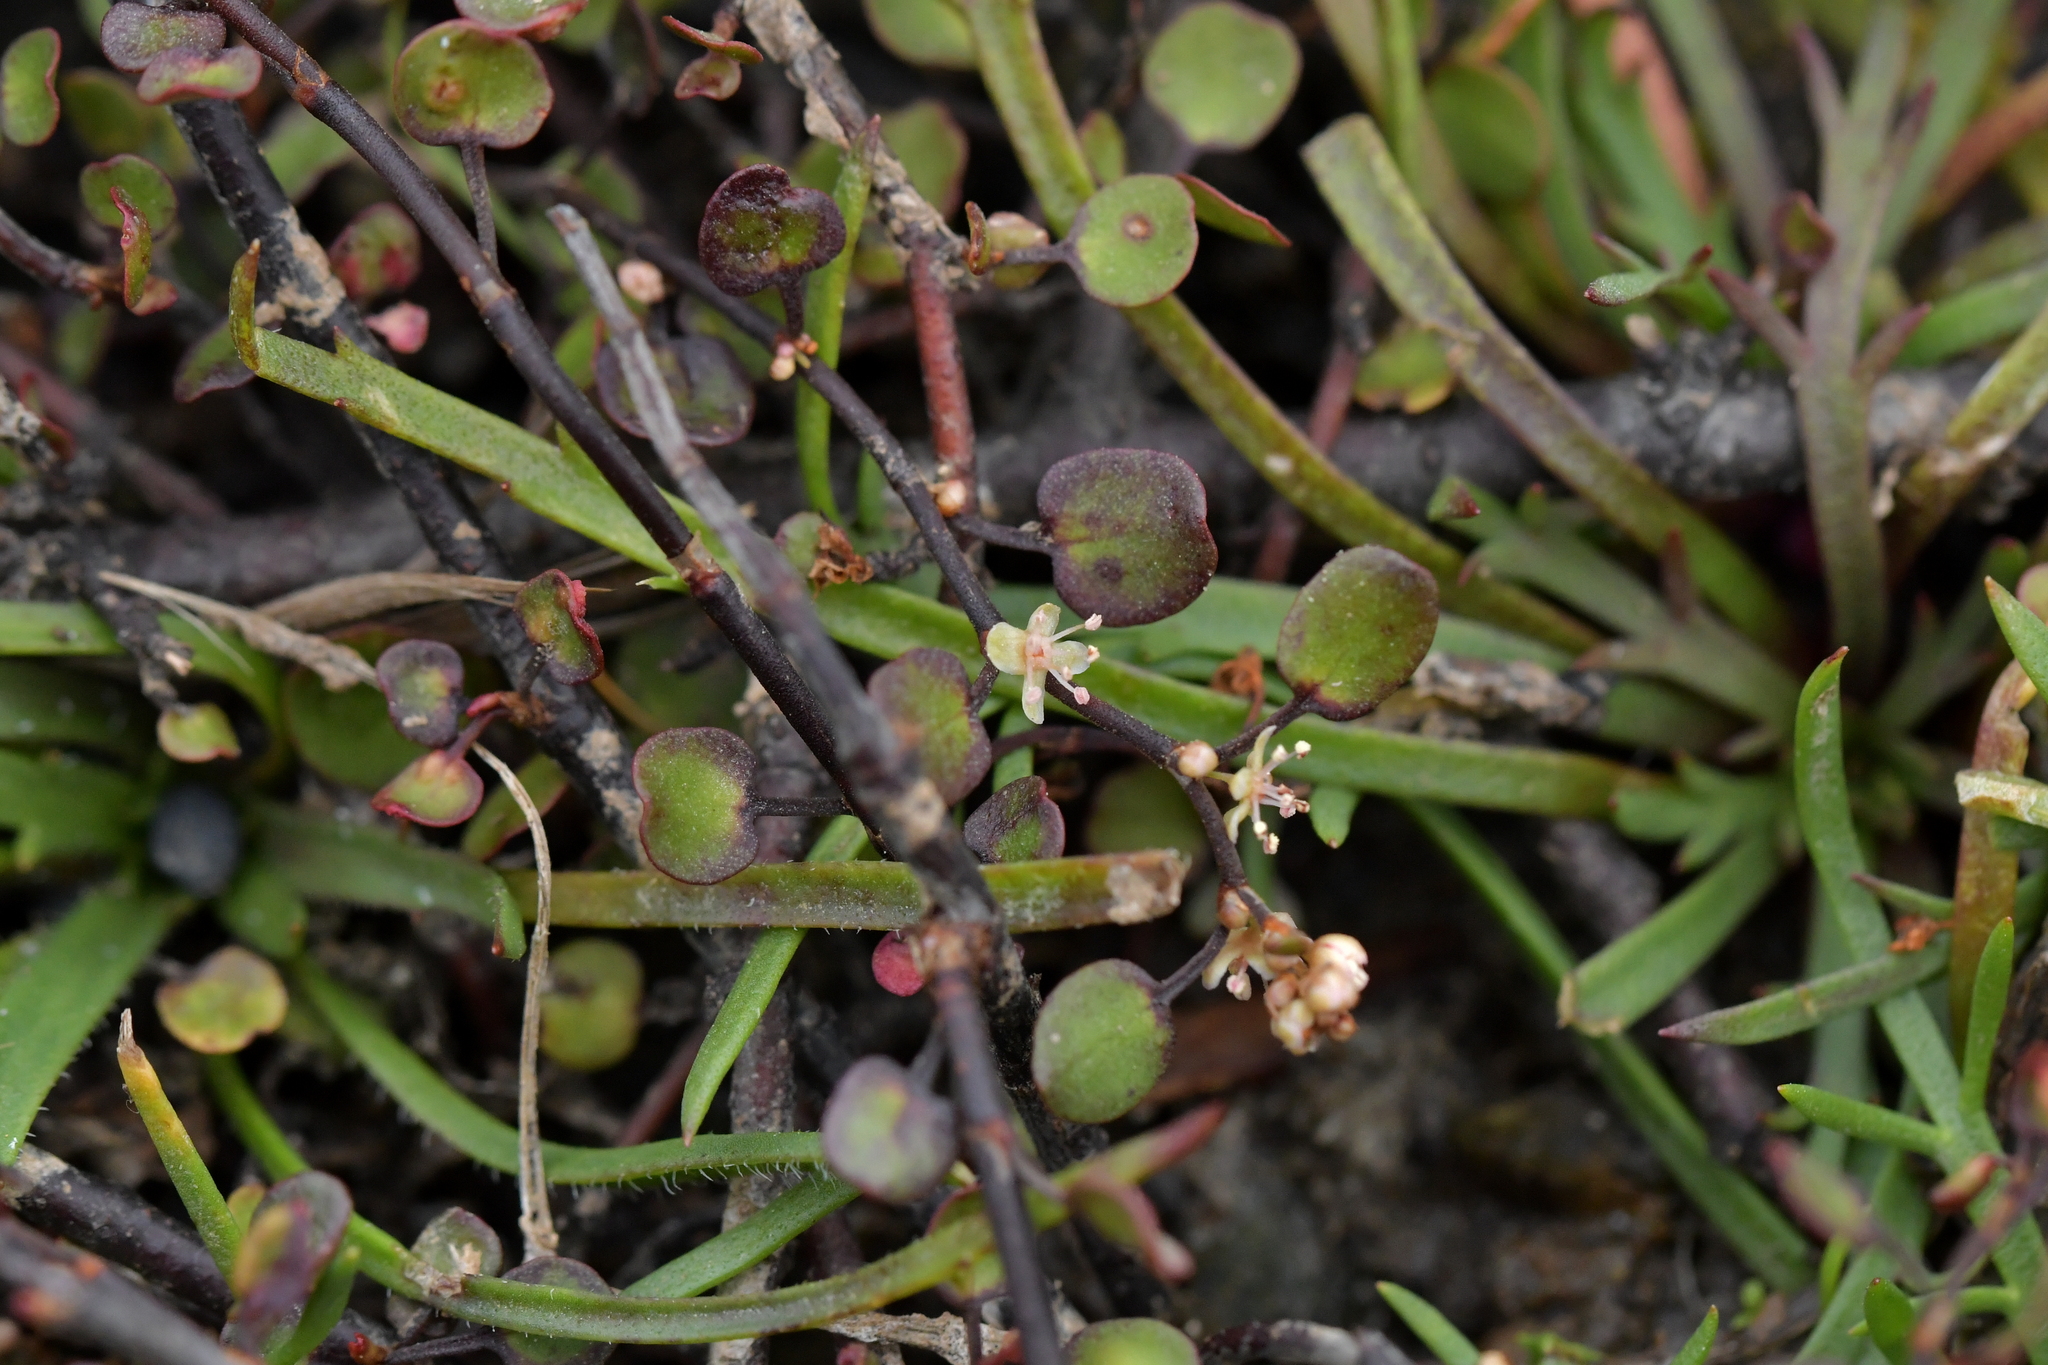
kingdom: Plantae
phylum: Tracheophyta
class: Magnoliopsida
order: Caryophyllales
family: Polygonaceae
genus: Muehlenbeckia
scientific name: Muehlenbeckia complexa
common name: Wireplant
